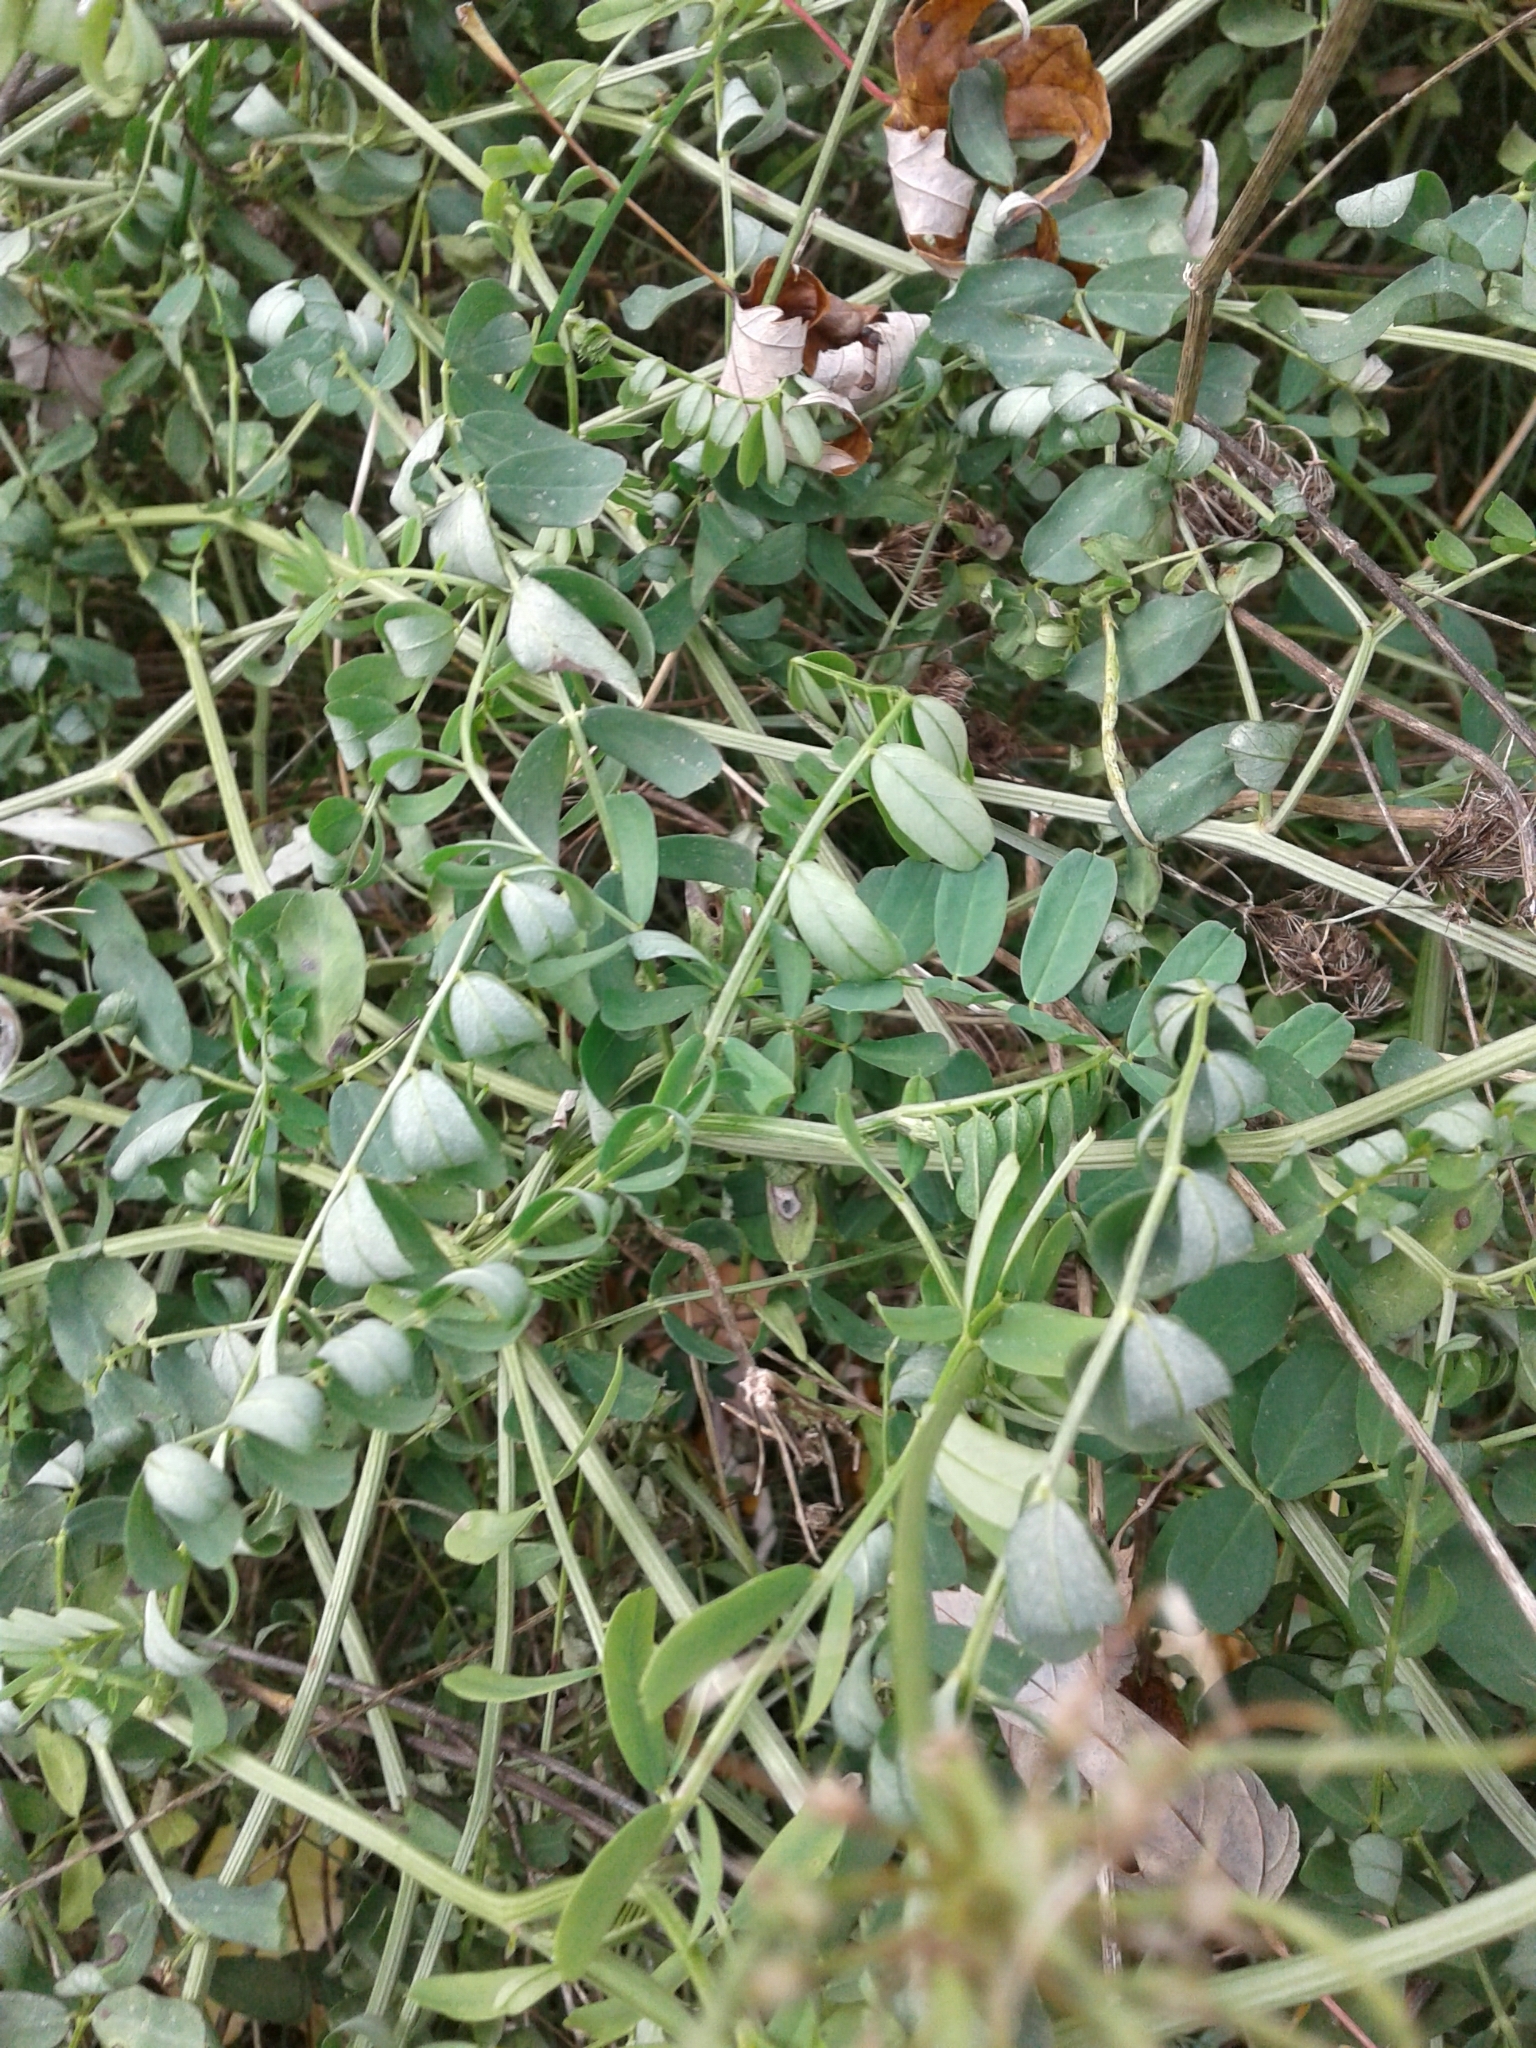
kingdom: Plantae
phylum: Tracheophyta
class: Magnoliopsida
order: Fabales
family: Fabaceae
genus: Coronilla
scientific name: Coronilla varia
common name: Crownvetch
